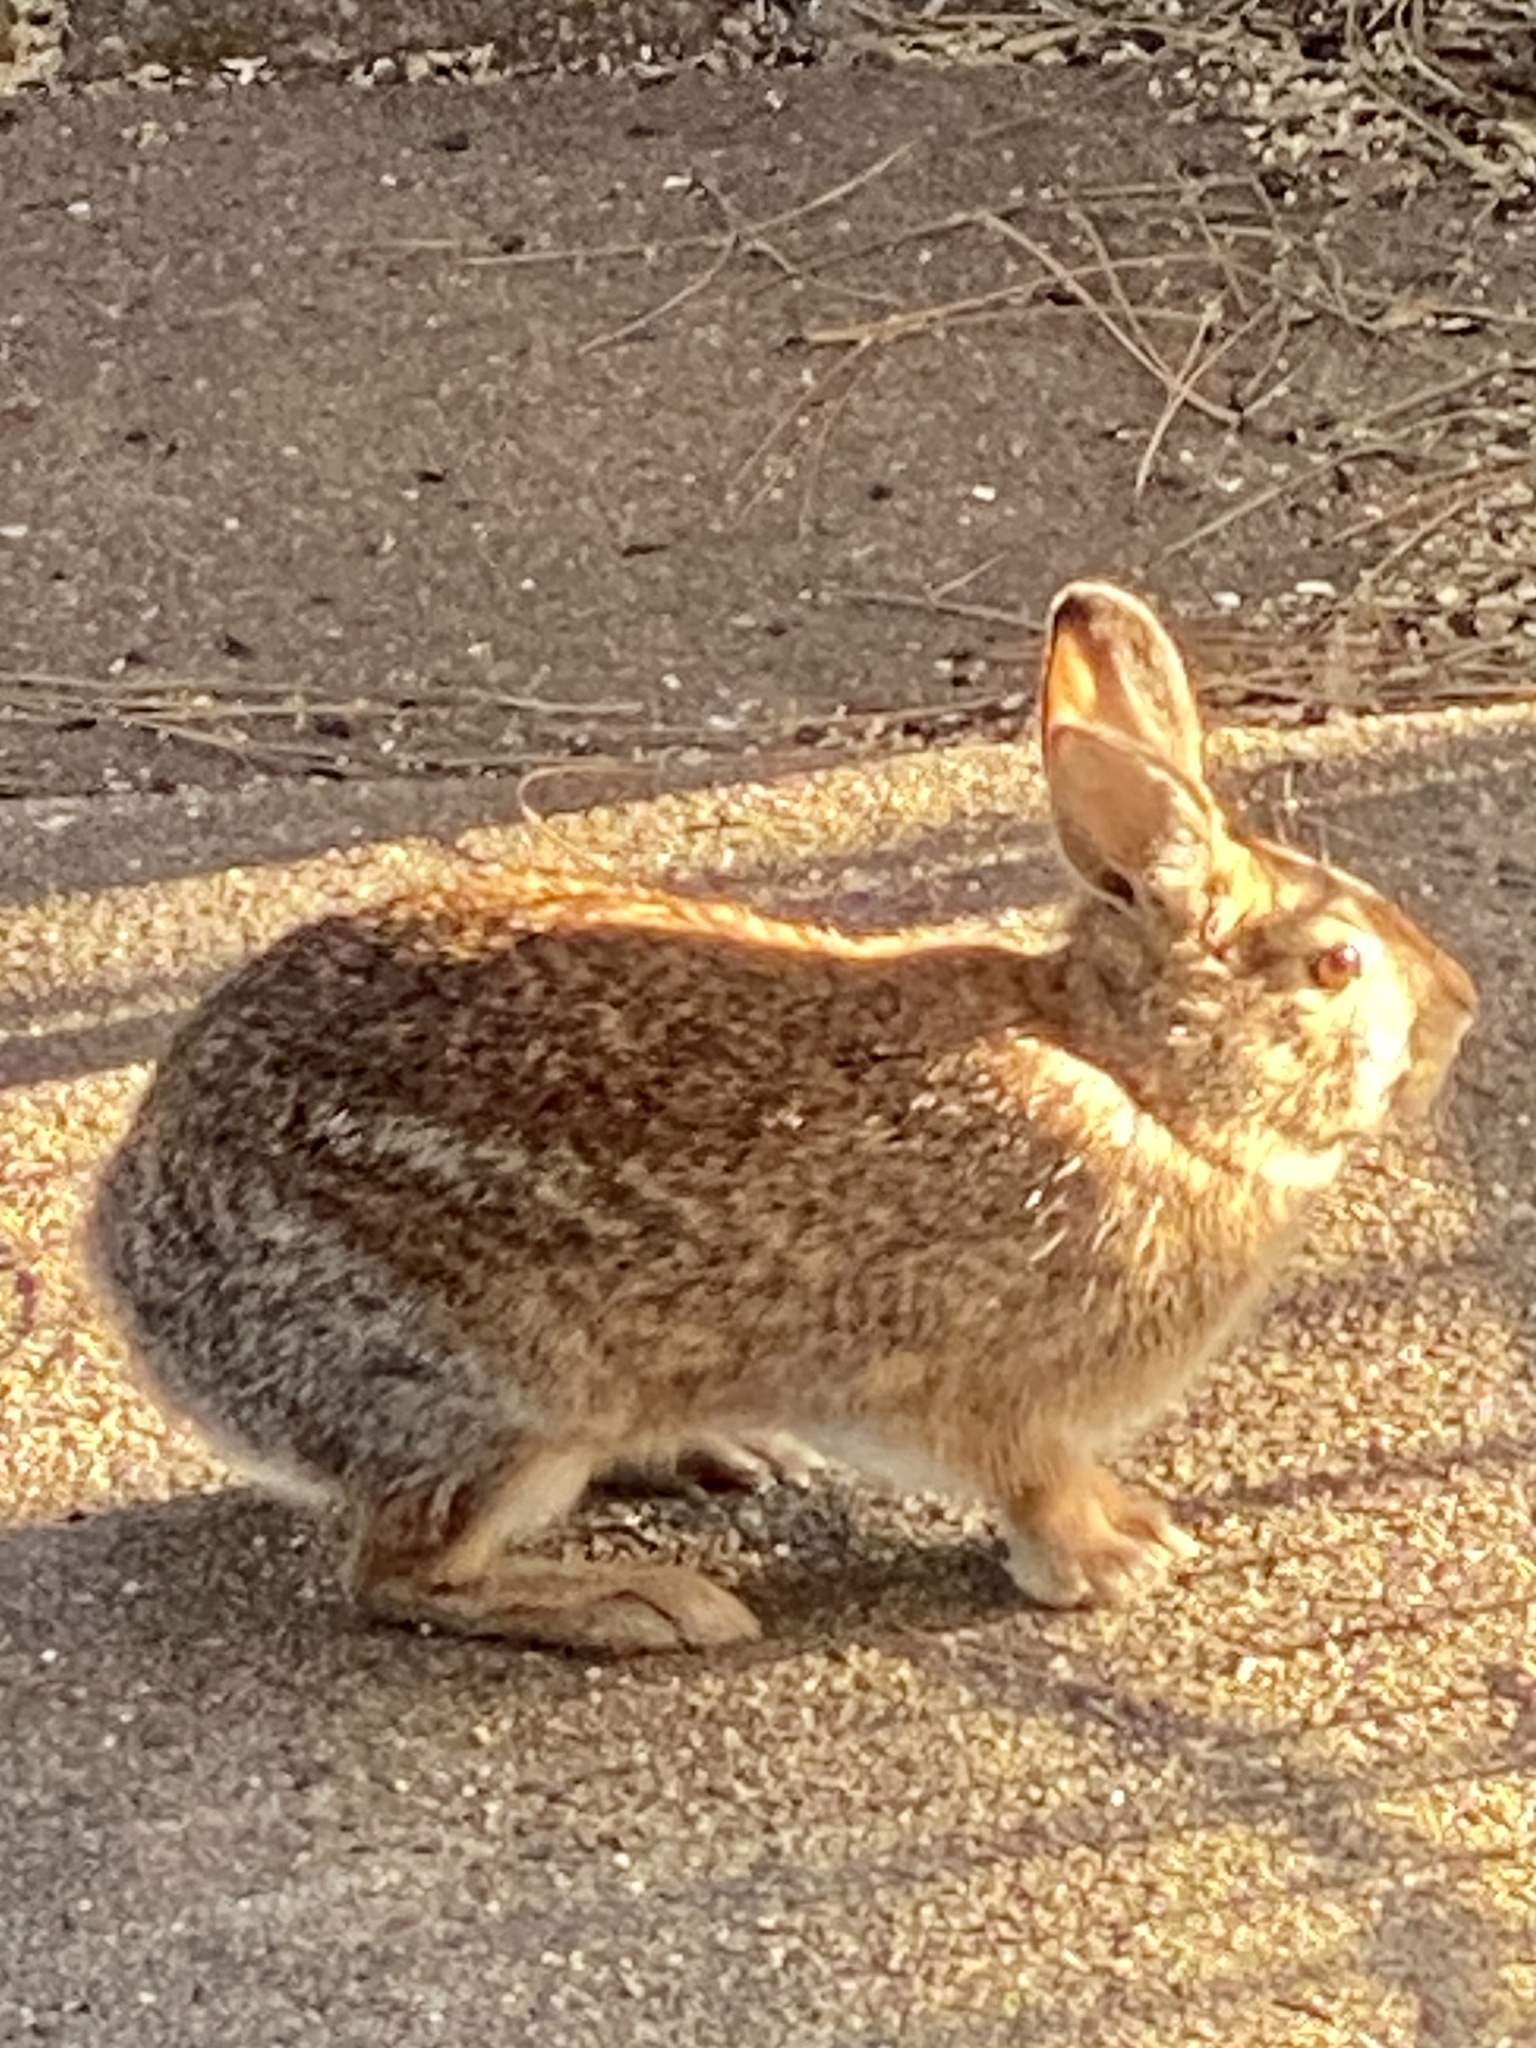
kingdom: Animalia
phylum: Chordata
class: Mammalia
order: Lagomorpha
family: Leporidae
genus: Sylvilagus
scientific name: Sylvilagus floridanus
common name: Eastern cottontail
